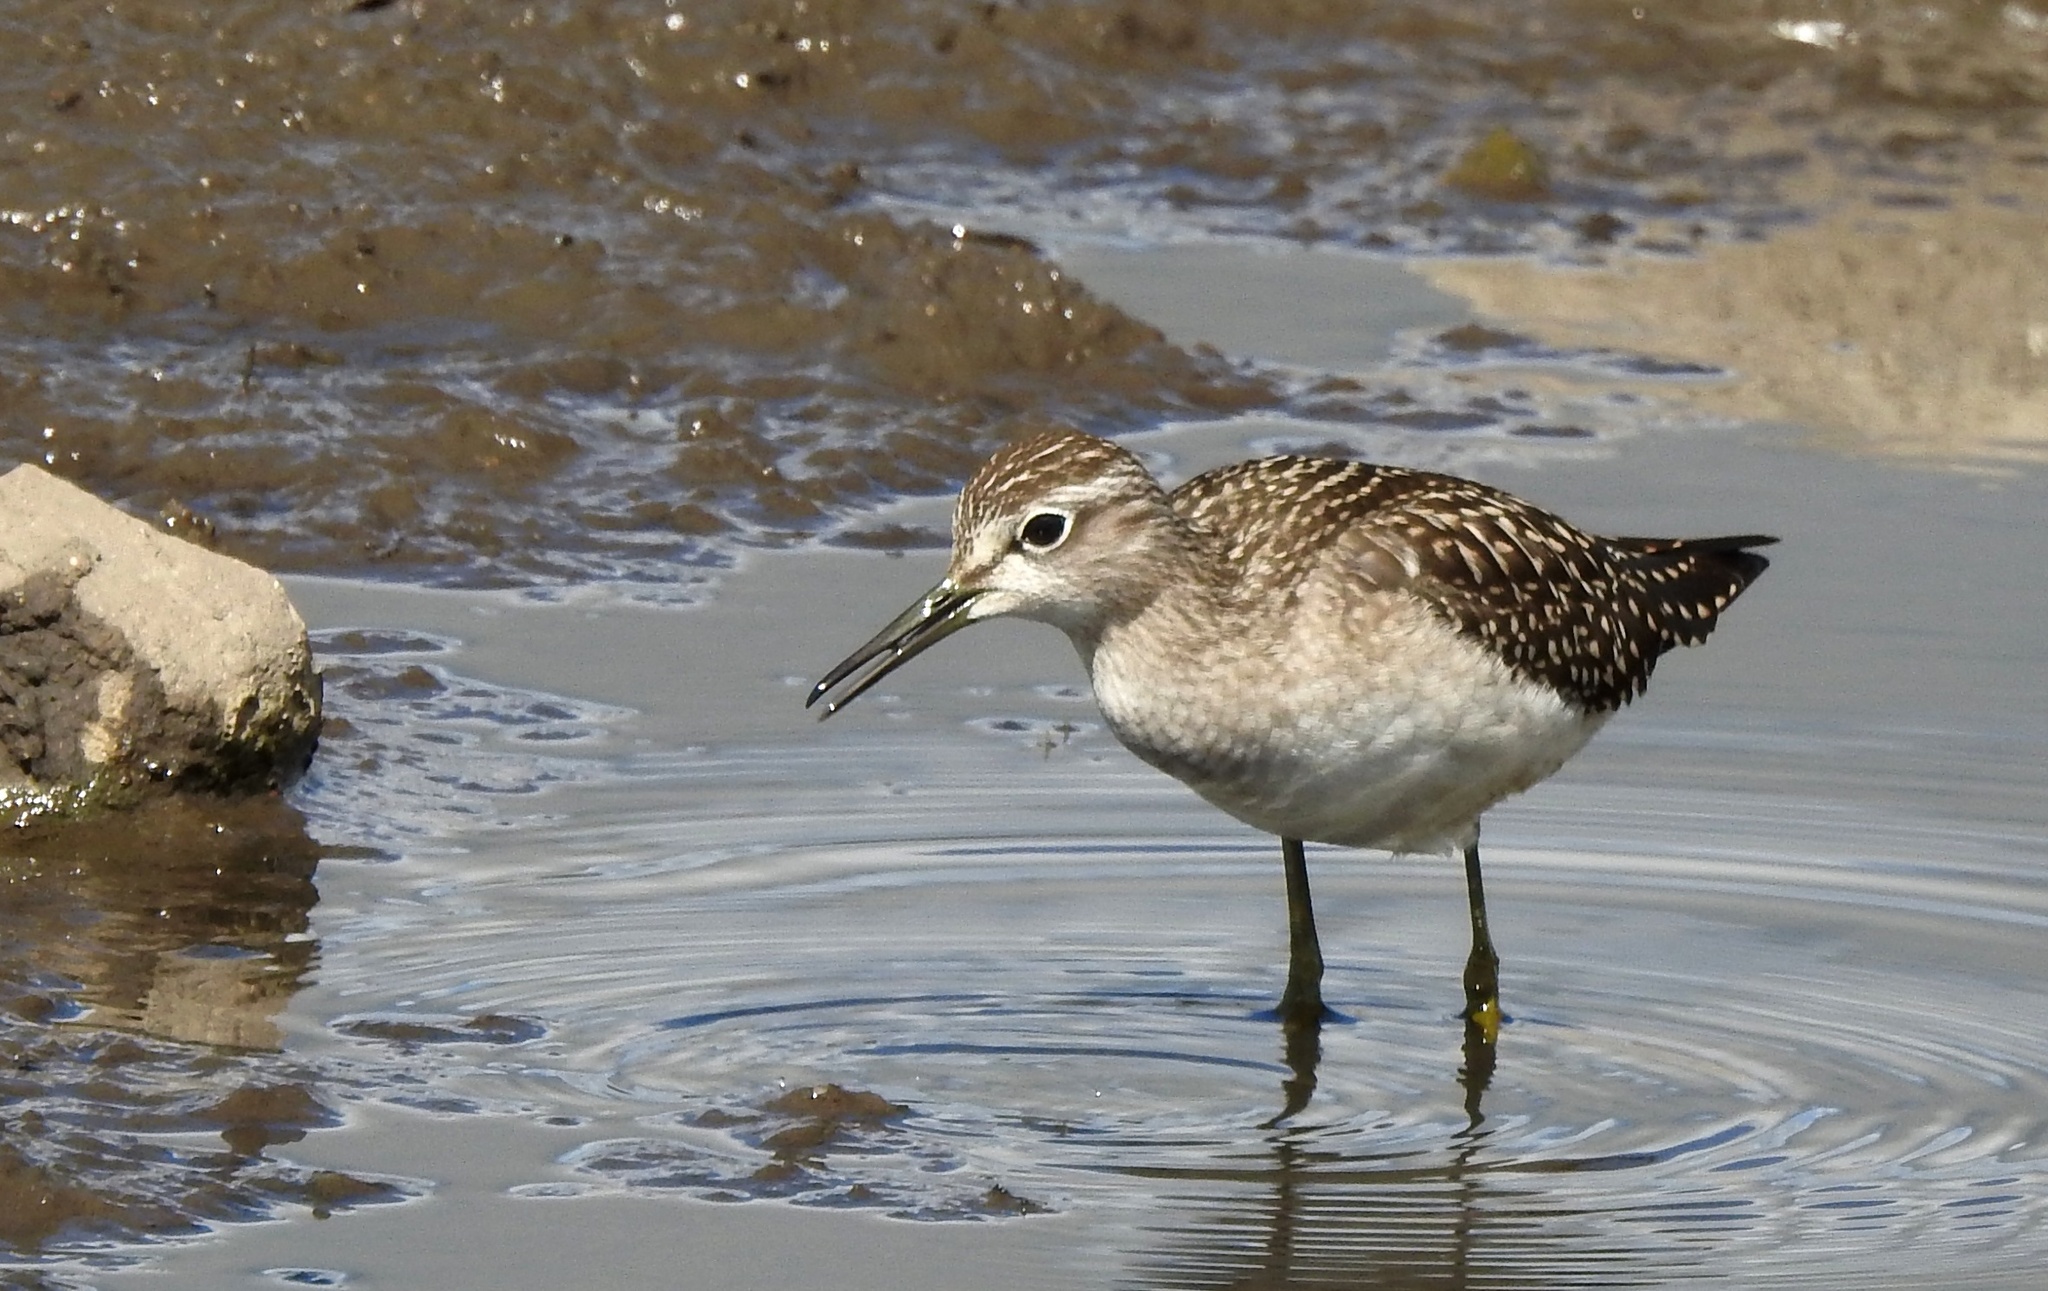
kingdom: Animalia
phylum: Chordata
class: Aves
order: Charadriiformes
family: Scolopacidae
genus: Tringa
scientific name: Tringa glareola
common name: Wood sandpiper
